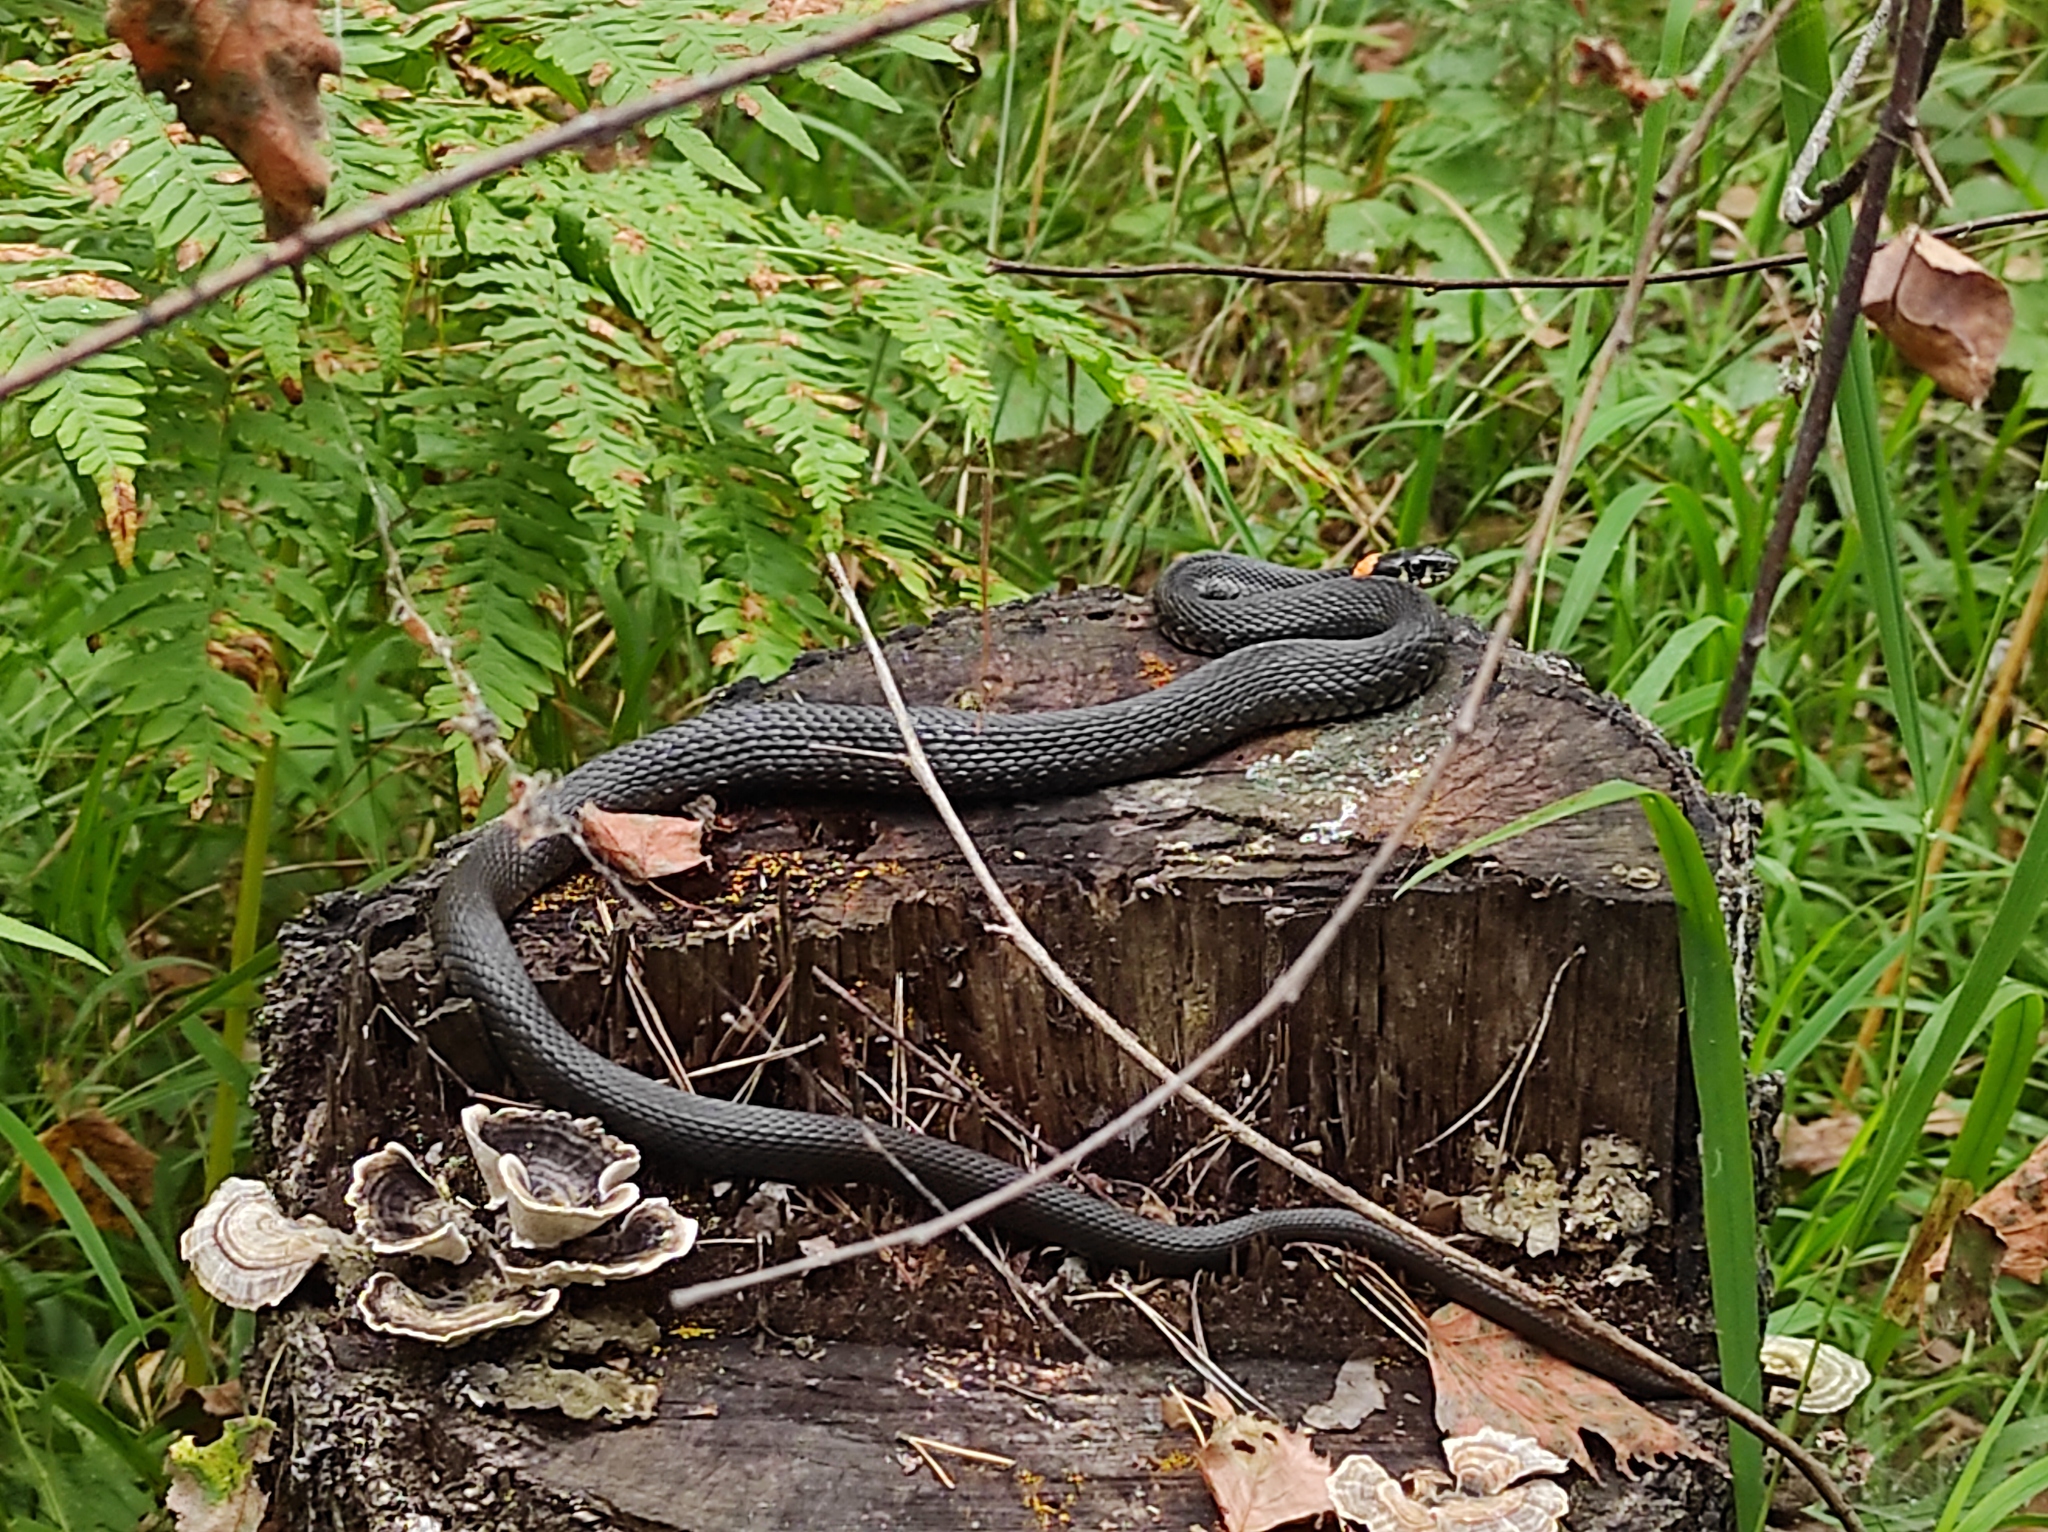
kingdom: Animalia
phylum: Chordata
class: Squamata
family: Colubridae
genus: Natrix
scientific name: Natrix natrix
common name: Grass snake
